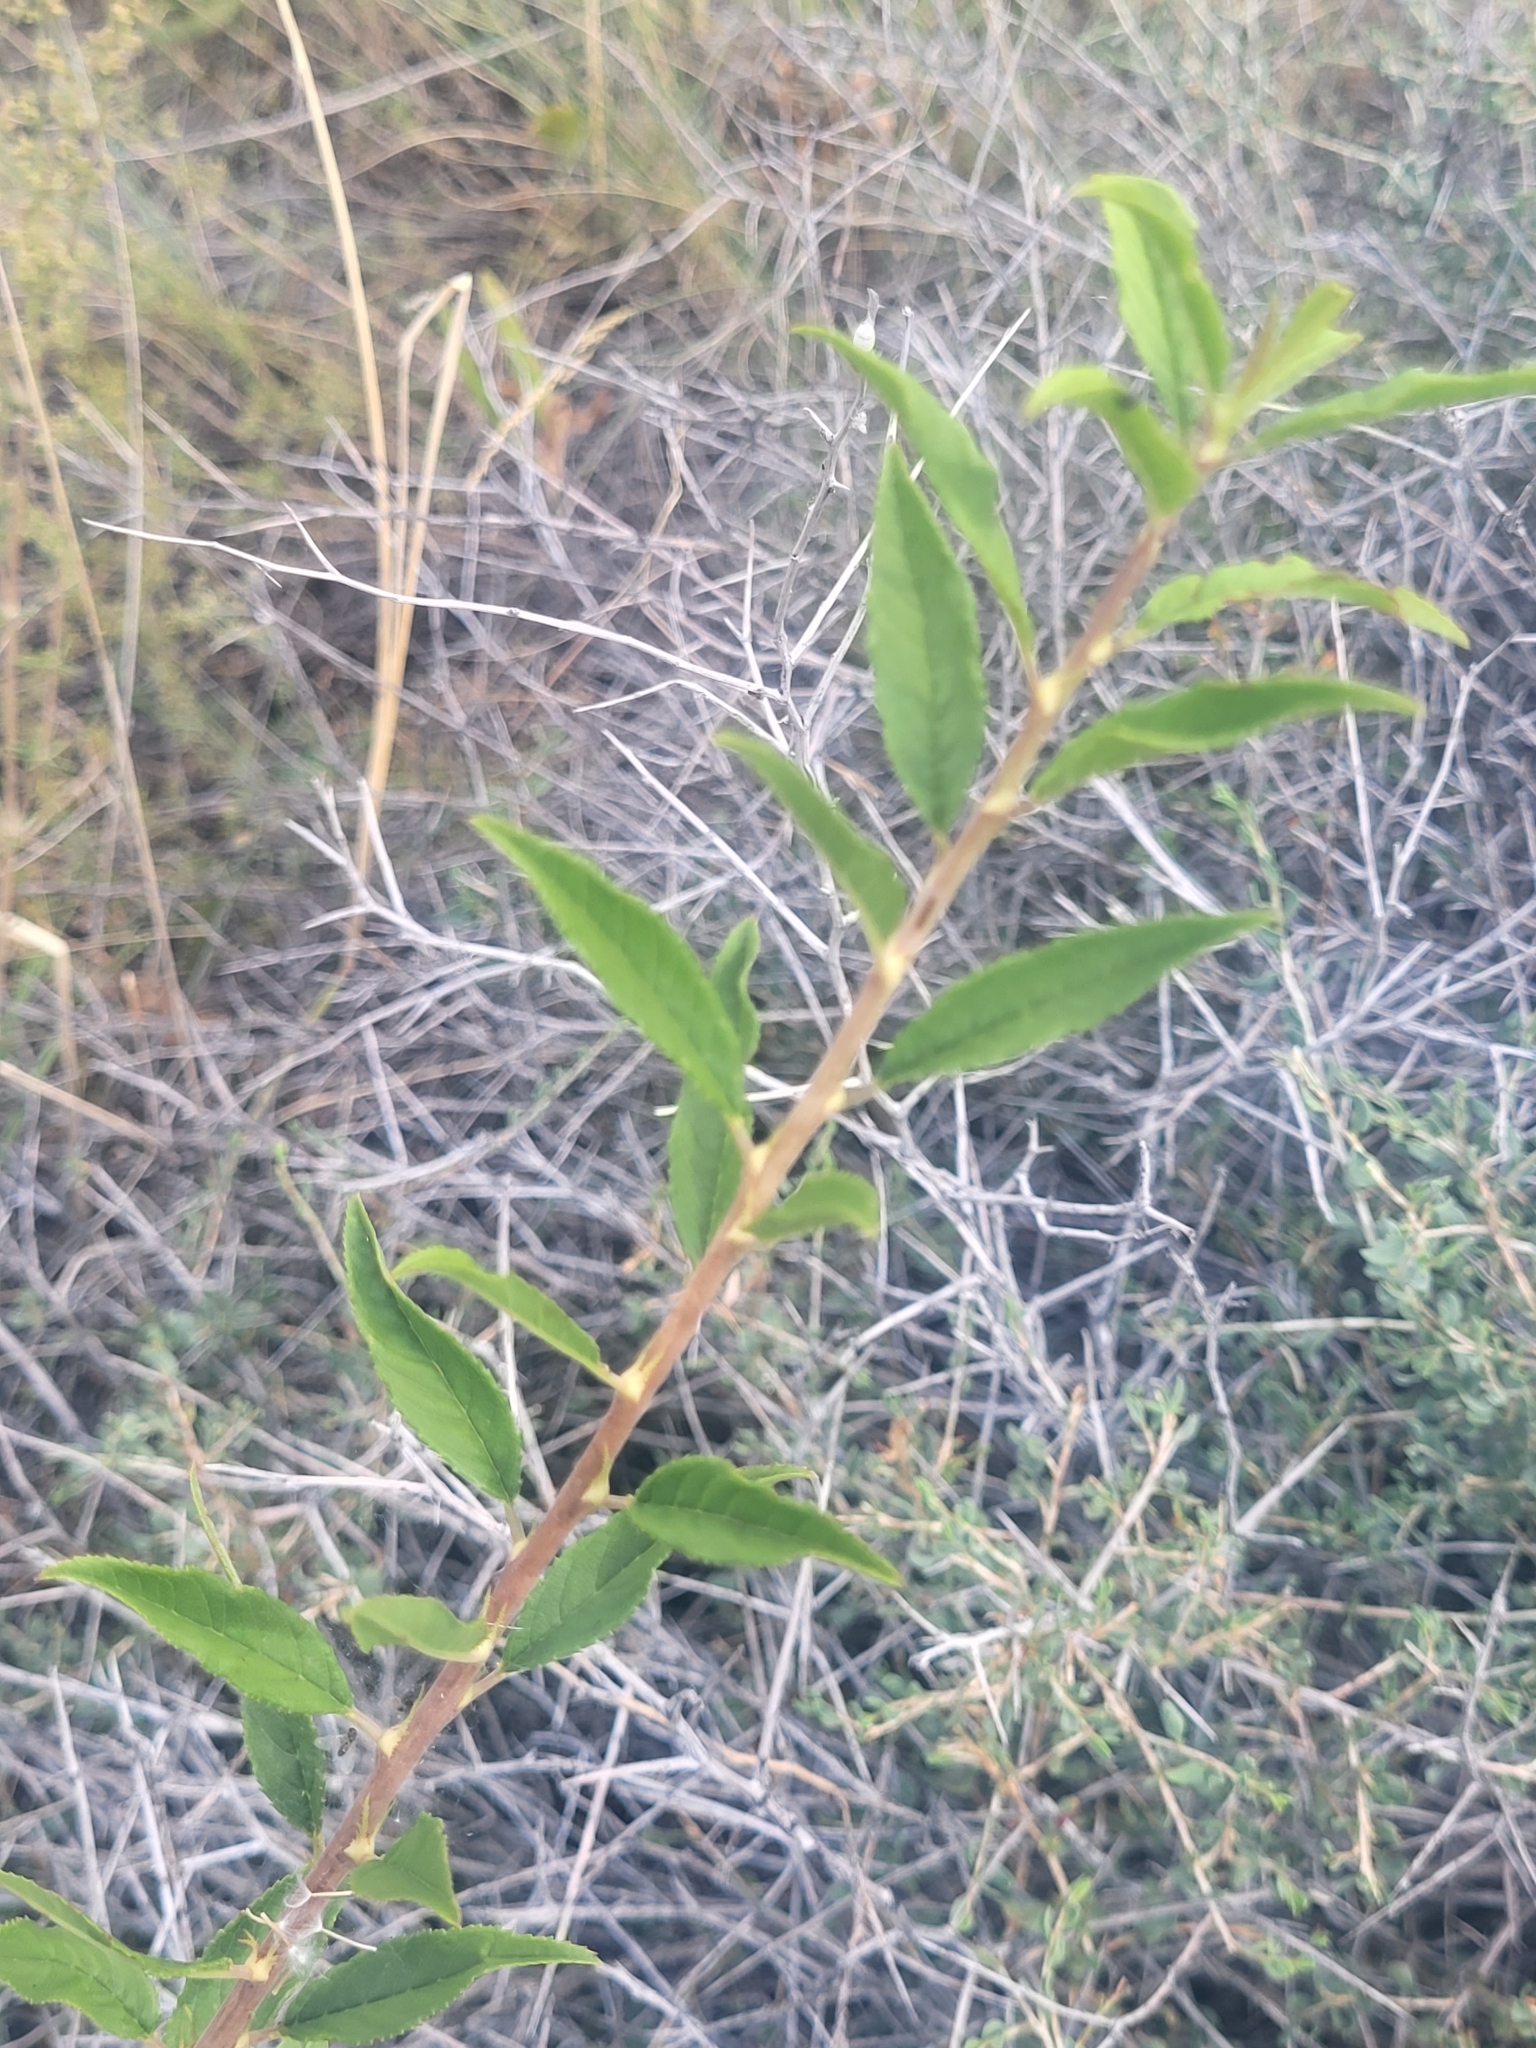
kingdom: Plantae
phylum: Tracheophyta
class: Magnoliopsida
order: Rosales
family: Rosaceae
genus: Prunus
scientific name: Prunus incana
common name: Willow cherry
